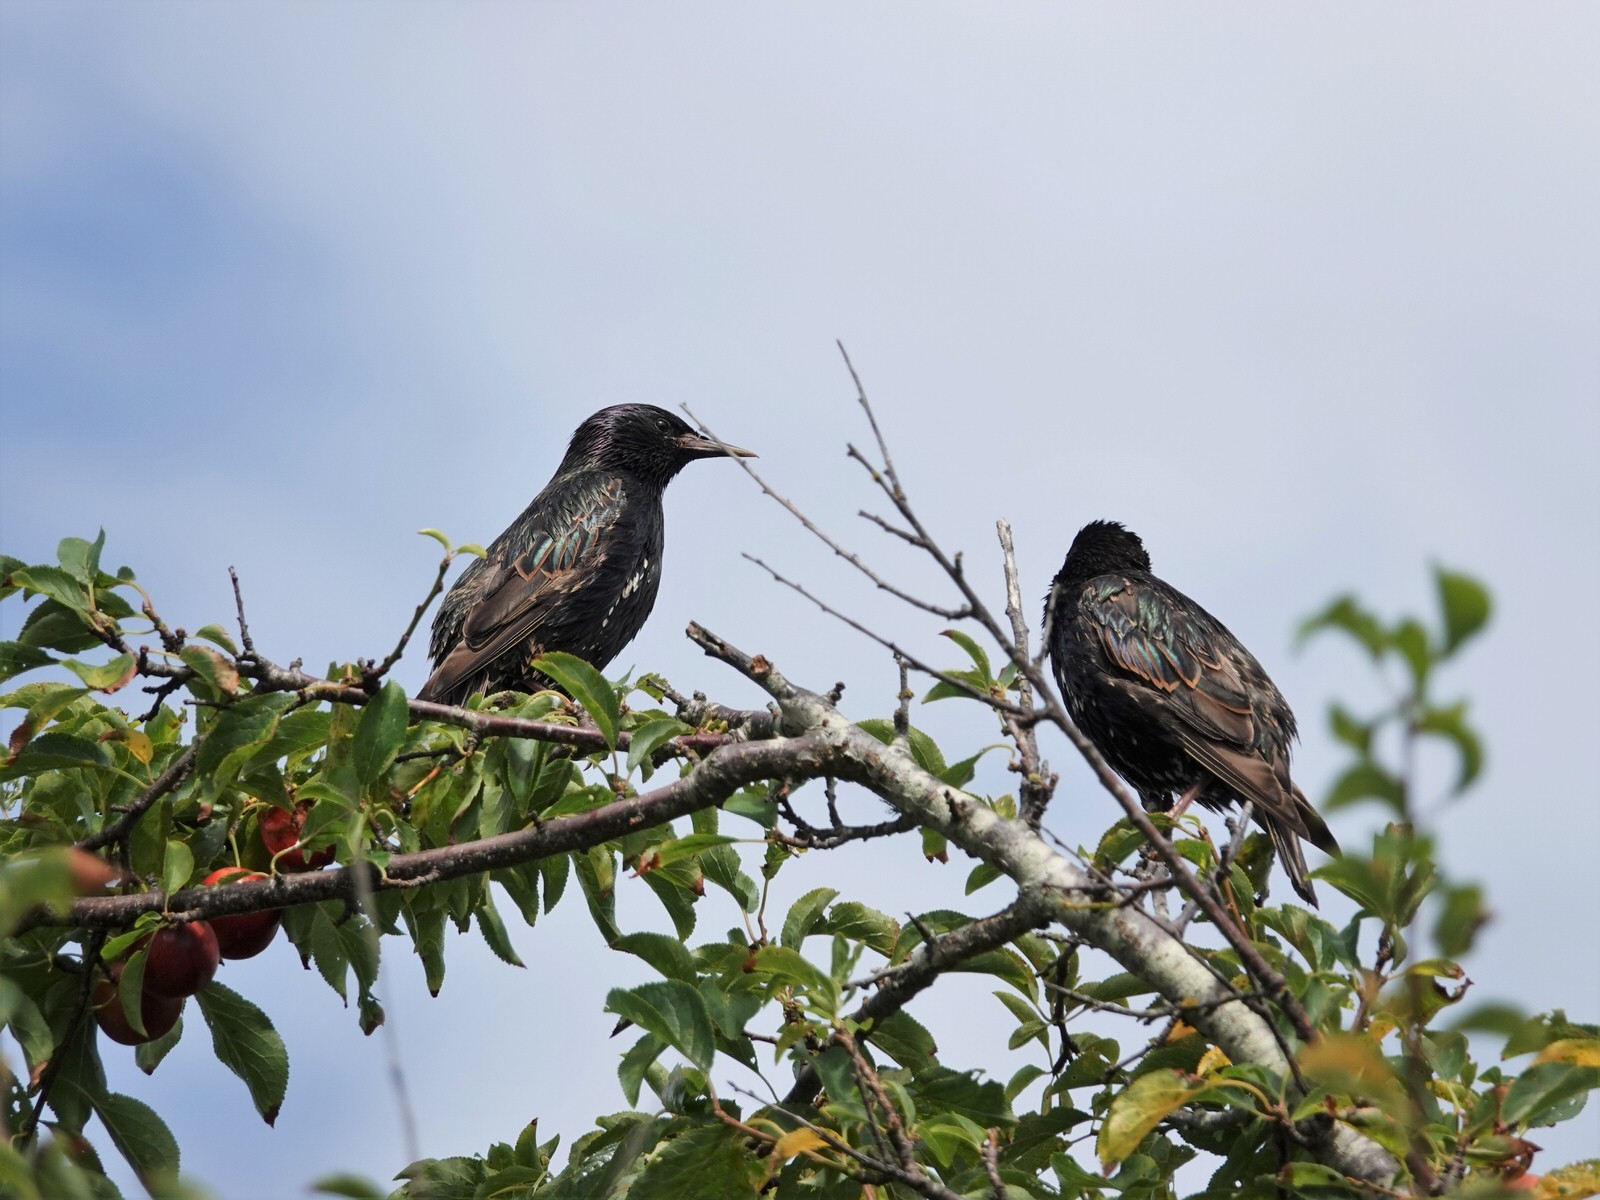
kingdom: Animalia
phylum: Chordata
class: Aves
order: Passeriformes
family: Sturnidae
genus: Sturnus
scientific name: Sturnus vulgaris
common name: Common starling
